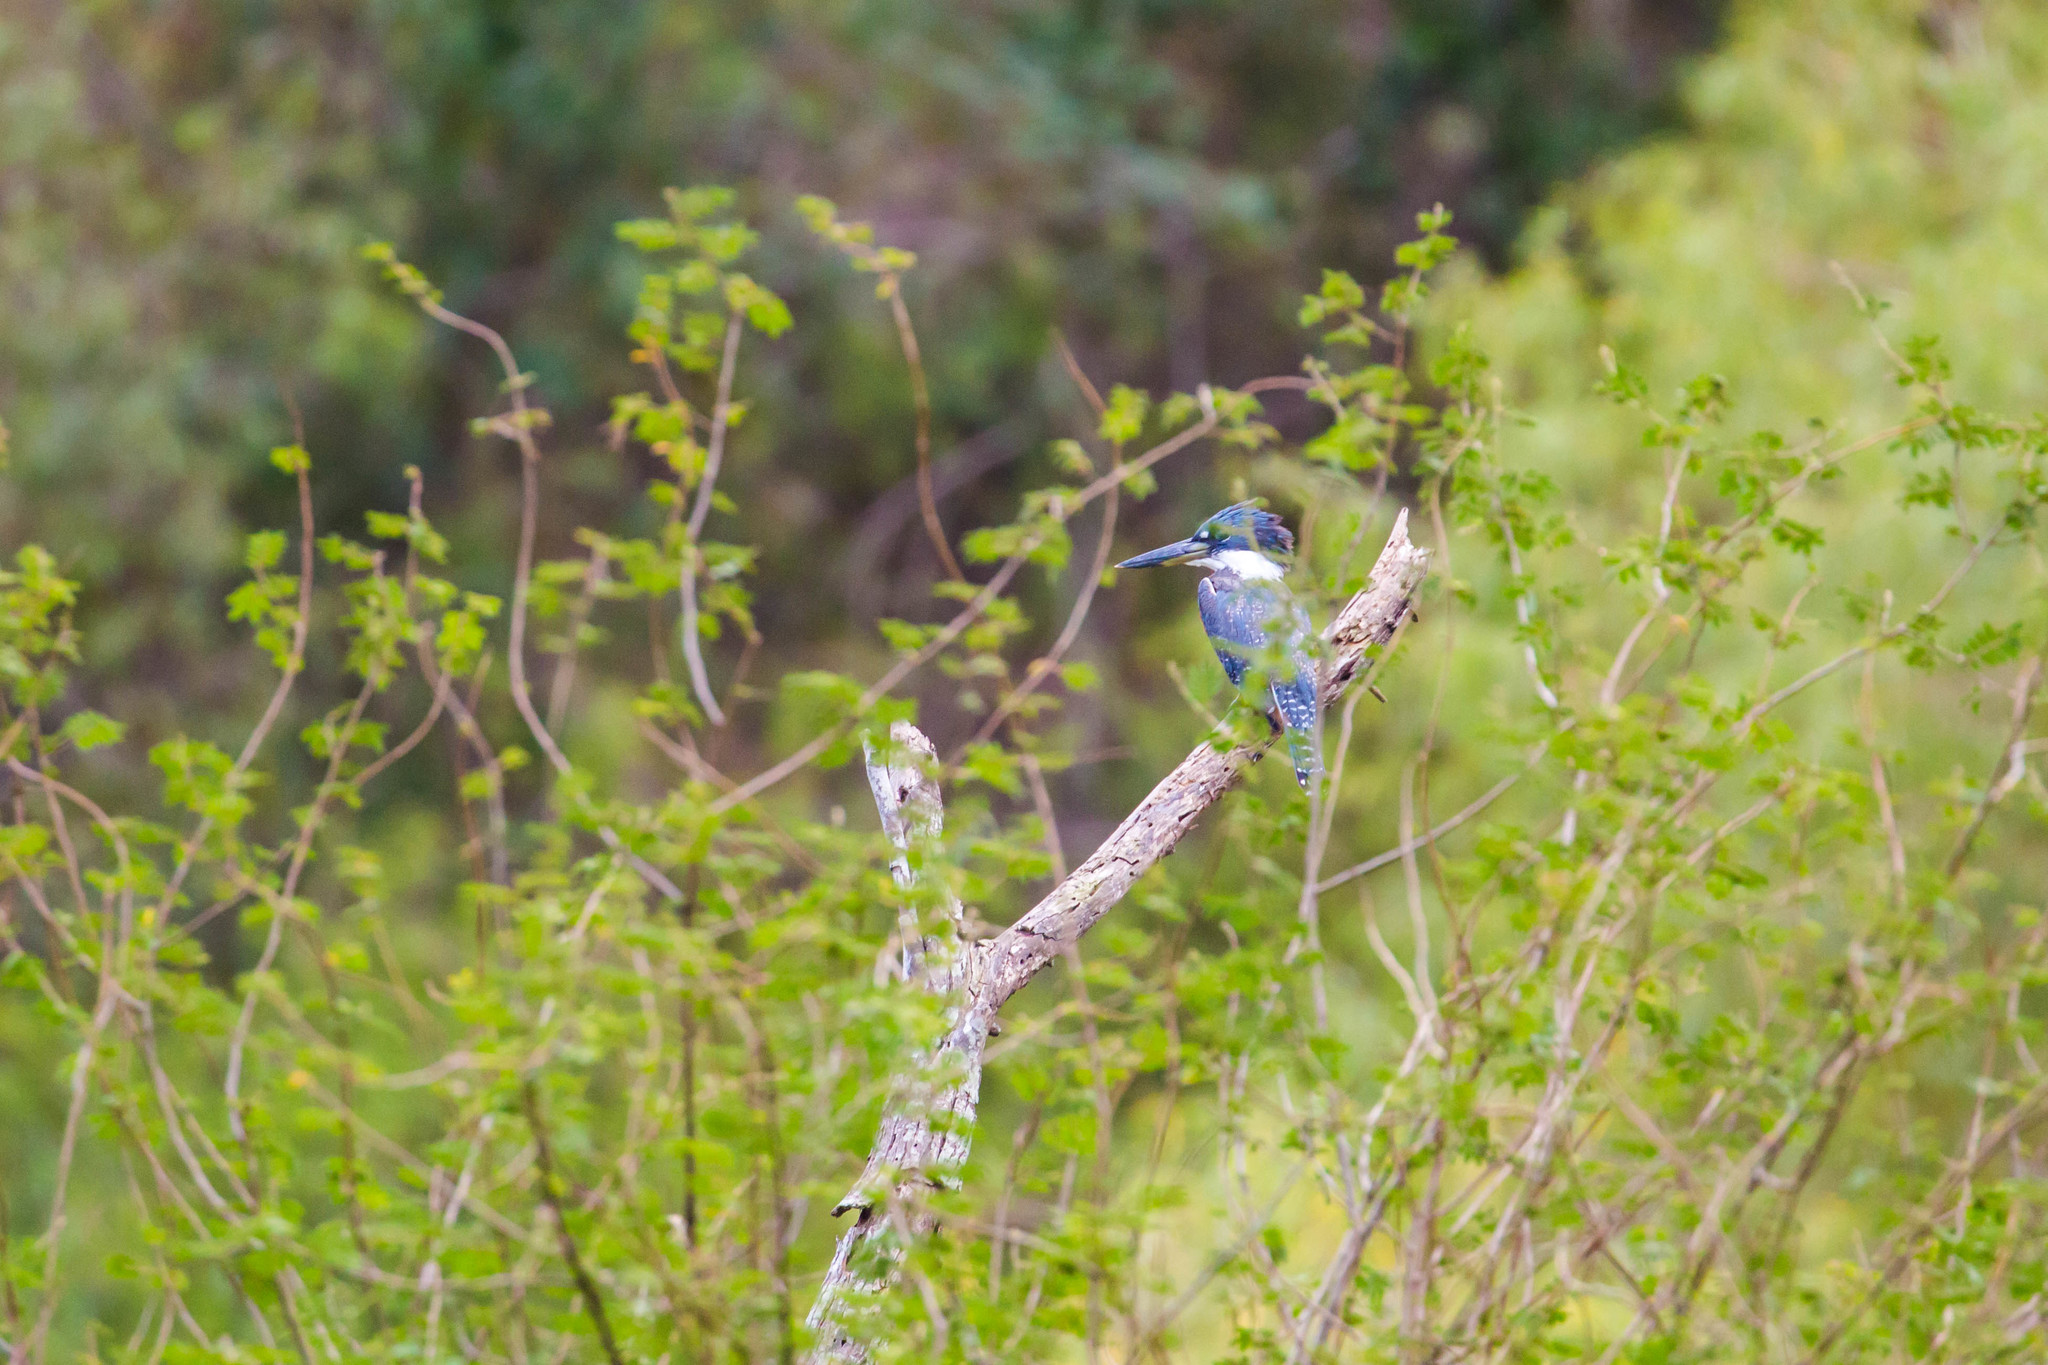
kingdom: Animalia
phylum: Chordata
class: Aves
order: Coraciiformes
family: Alcedinidae
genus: Megaceryle
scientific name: Megaceryle torquata
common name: Ringed kingfisher
